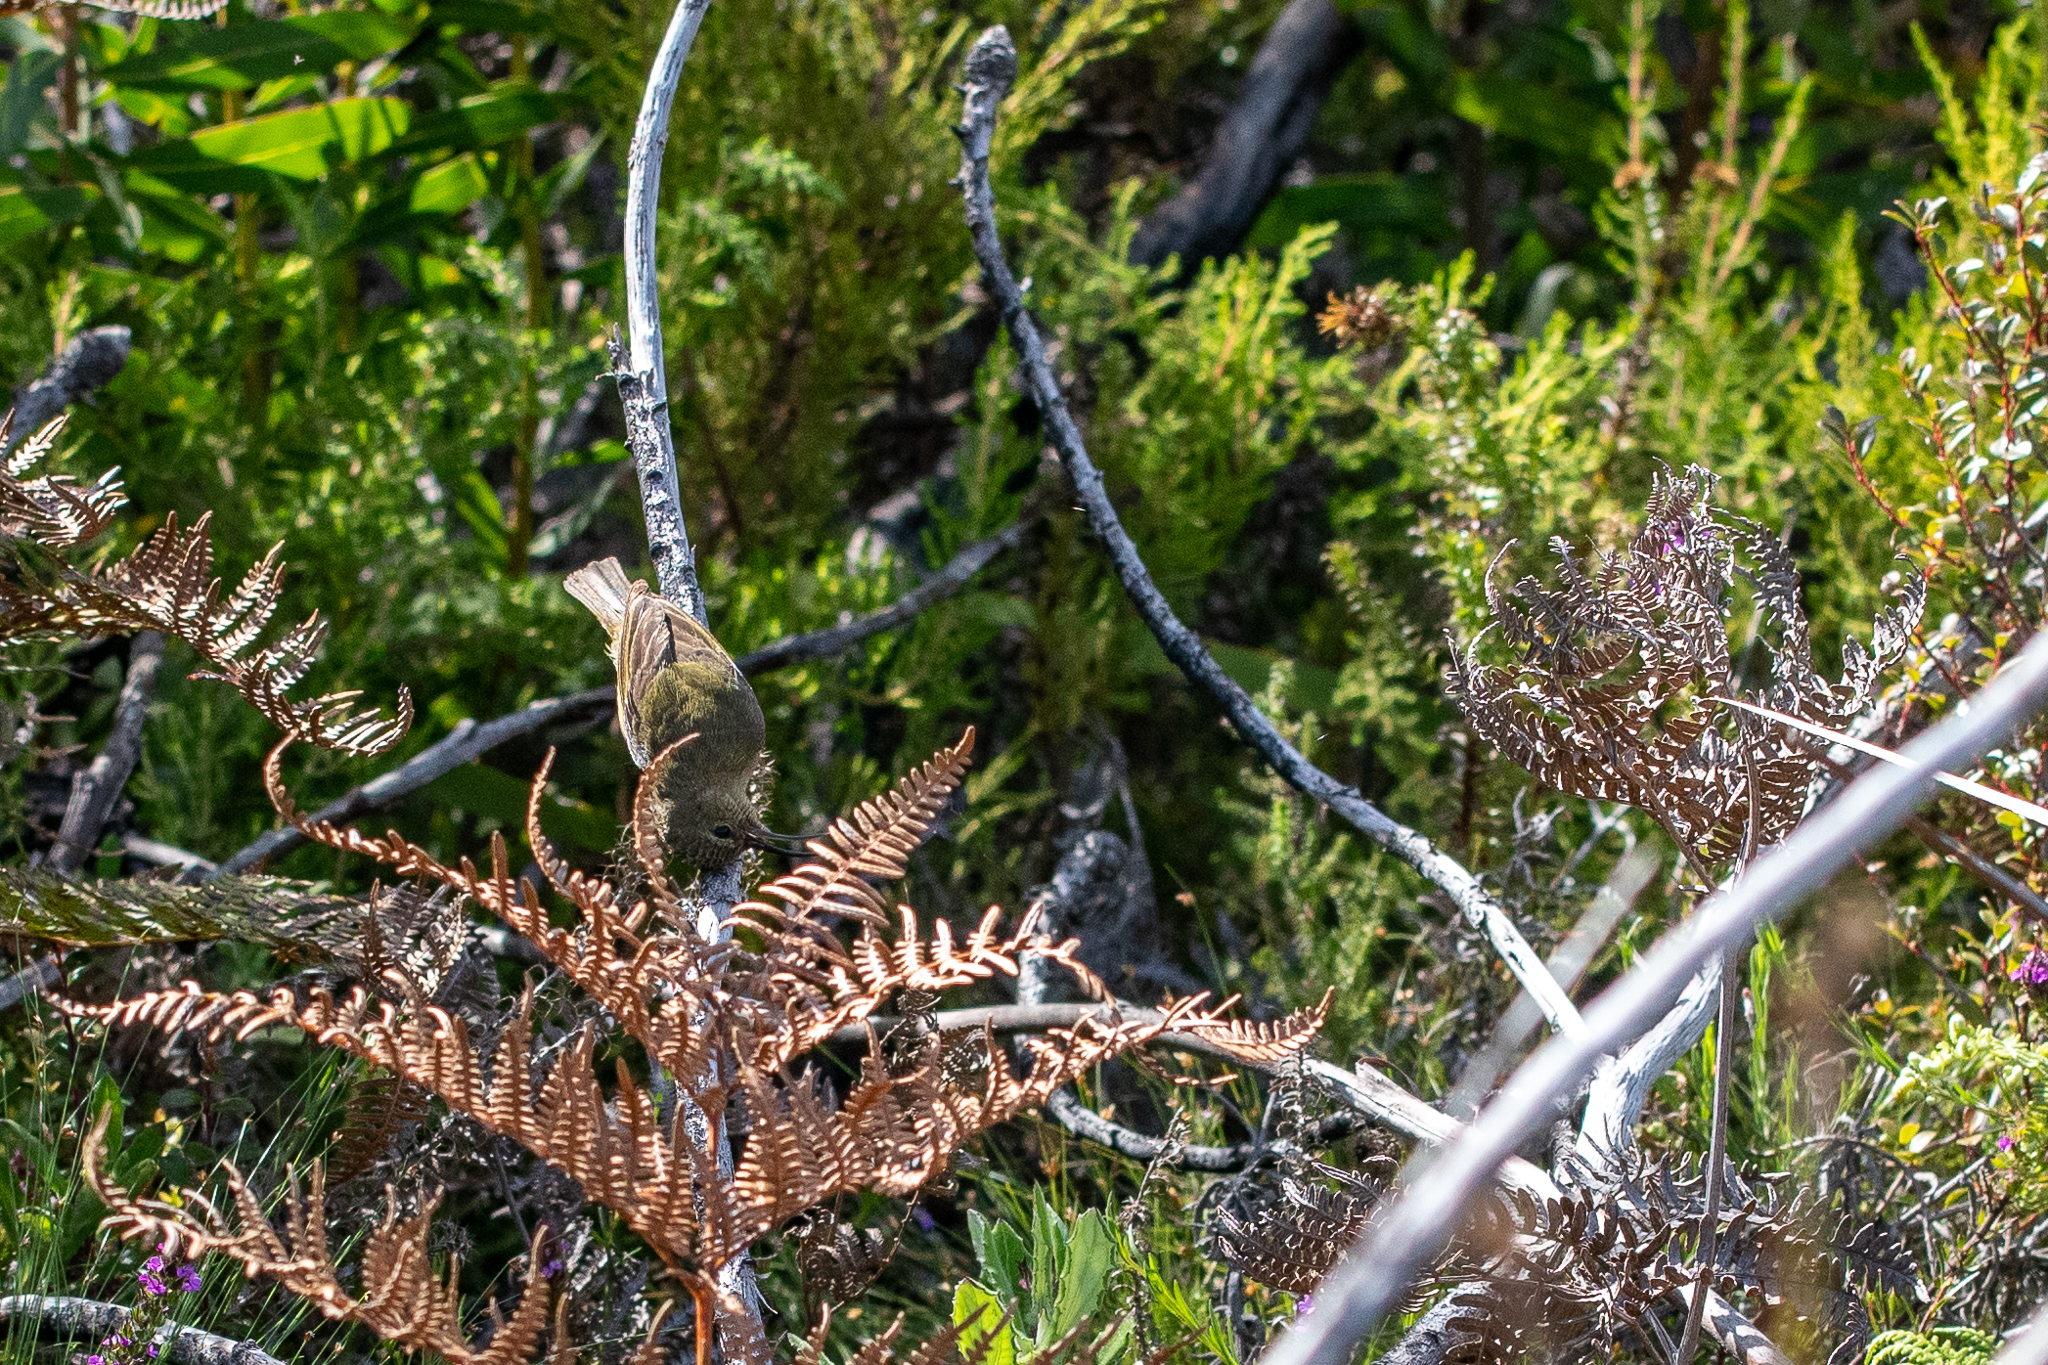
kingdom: Animalia
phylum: Chordata
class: Aves
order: Passeriformes
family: Nectariniidae
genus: Anthobaphes
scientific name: Anthobaphes violacea
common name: Orange-breasted sunbird
